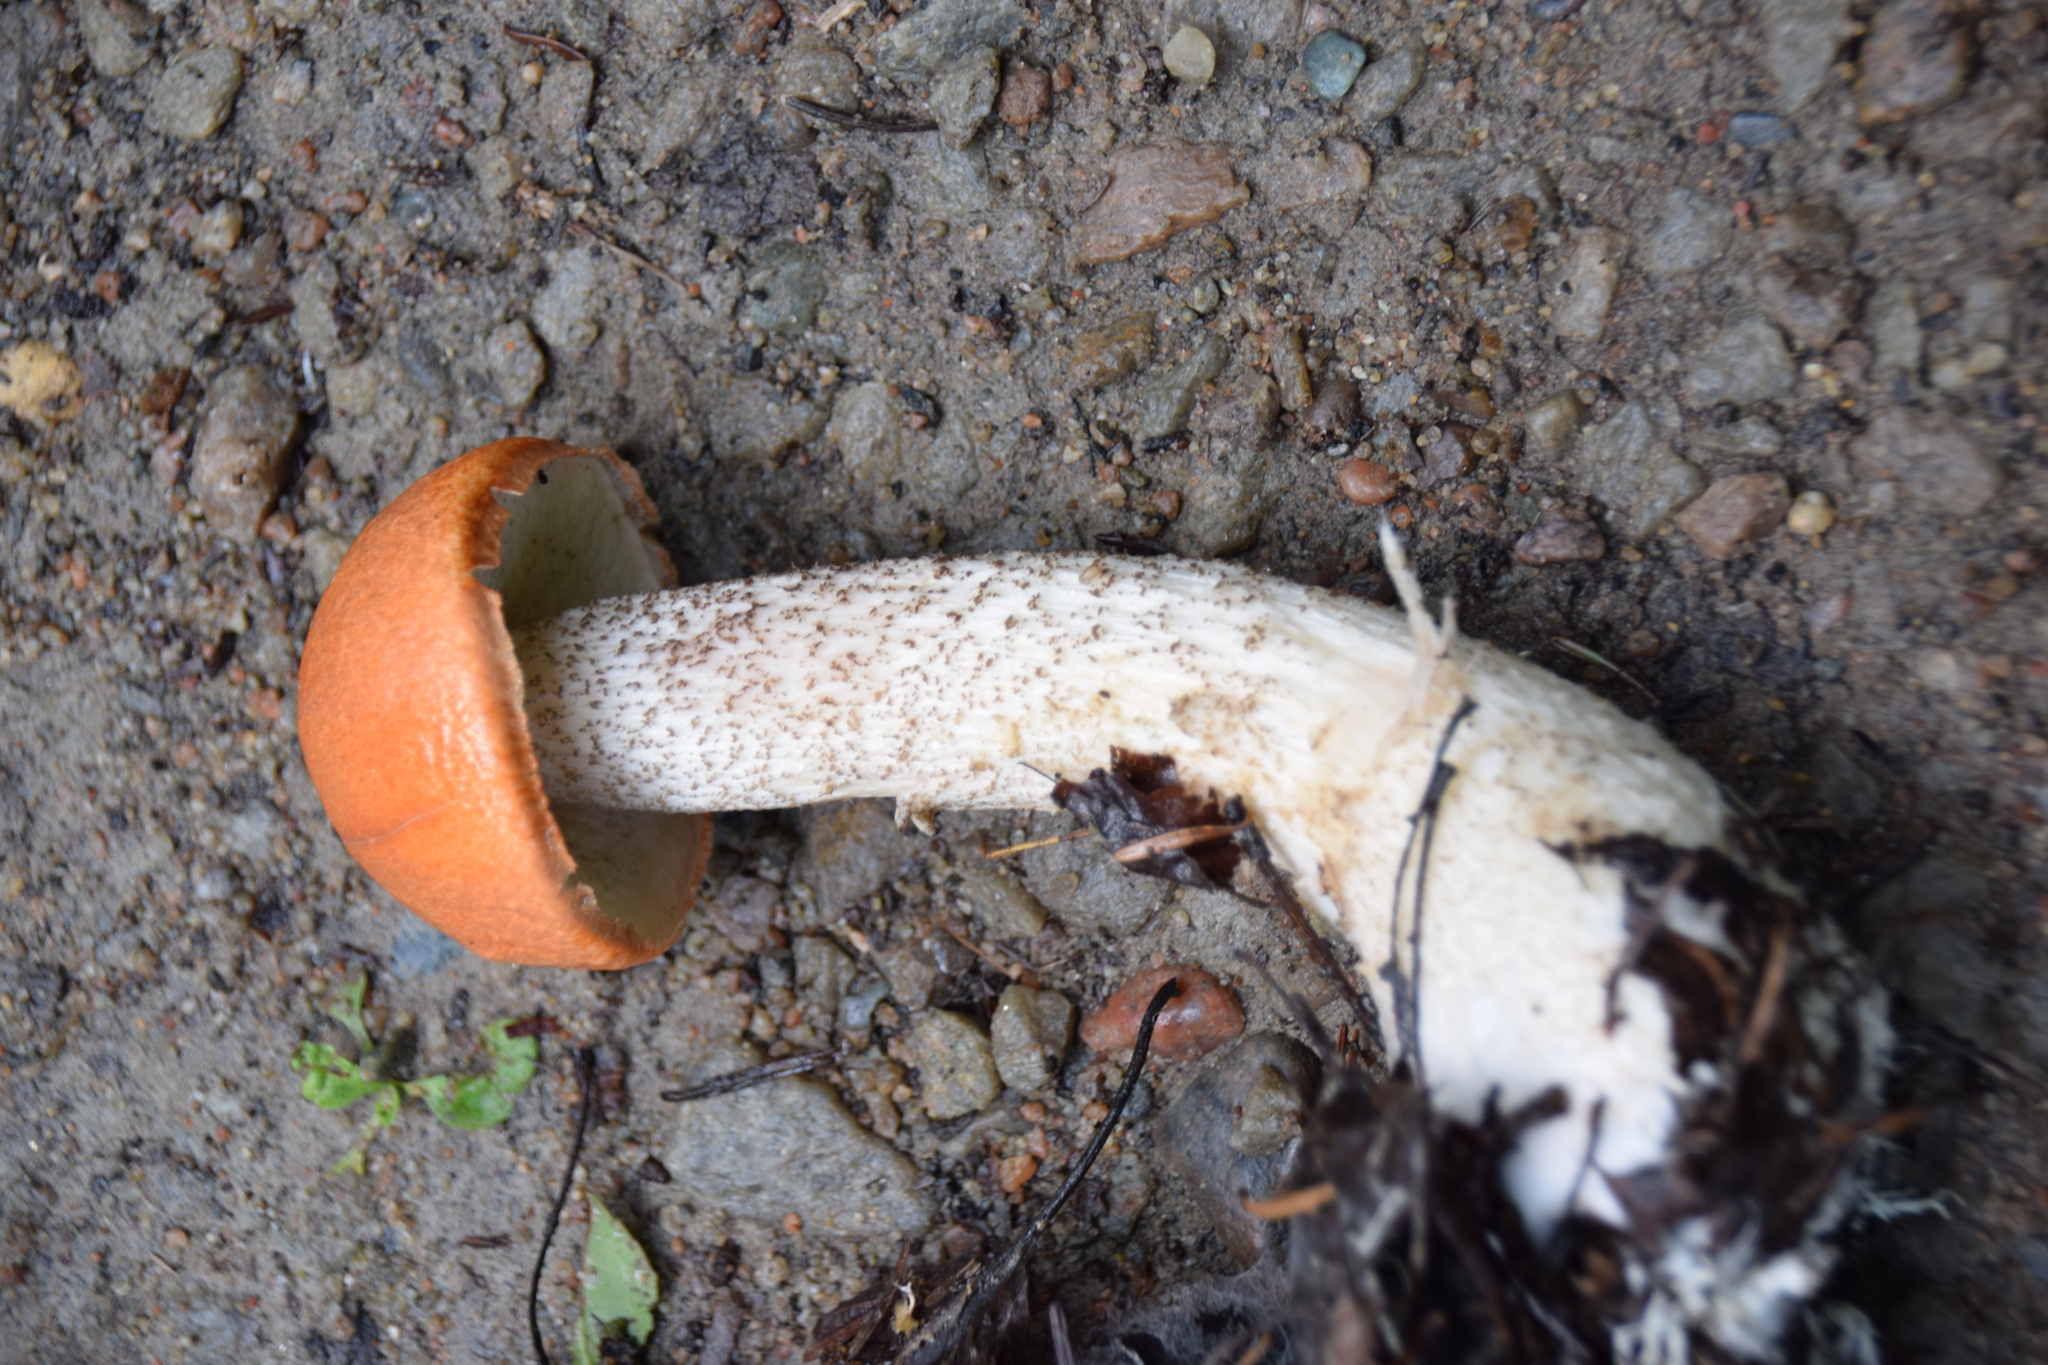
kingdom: Fungi
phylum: Basidiomycota
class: Agaricomycetes
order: Boletales
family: Boletaceae
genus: Leccinum
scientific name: Leccinum aurantiacum
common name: Orange bolete
